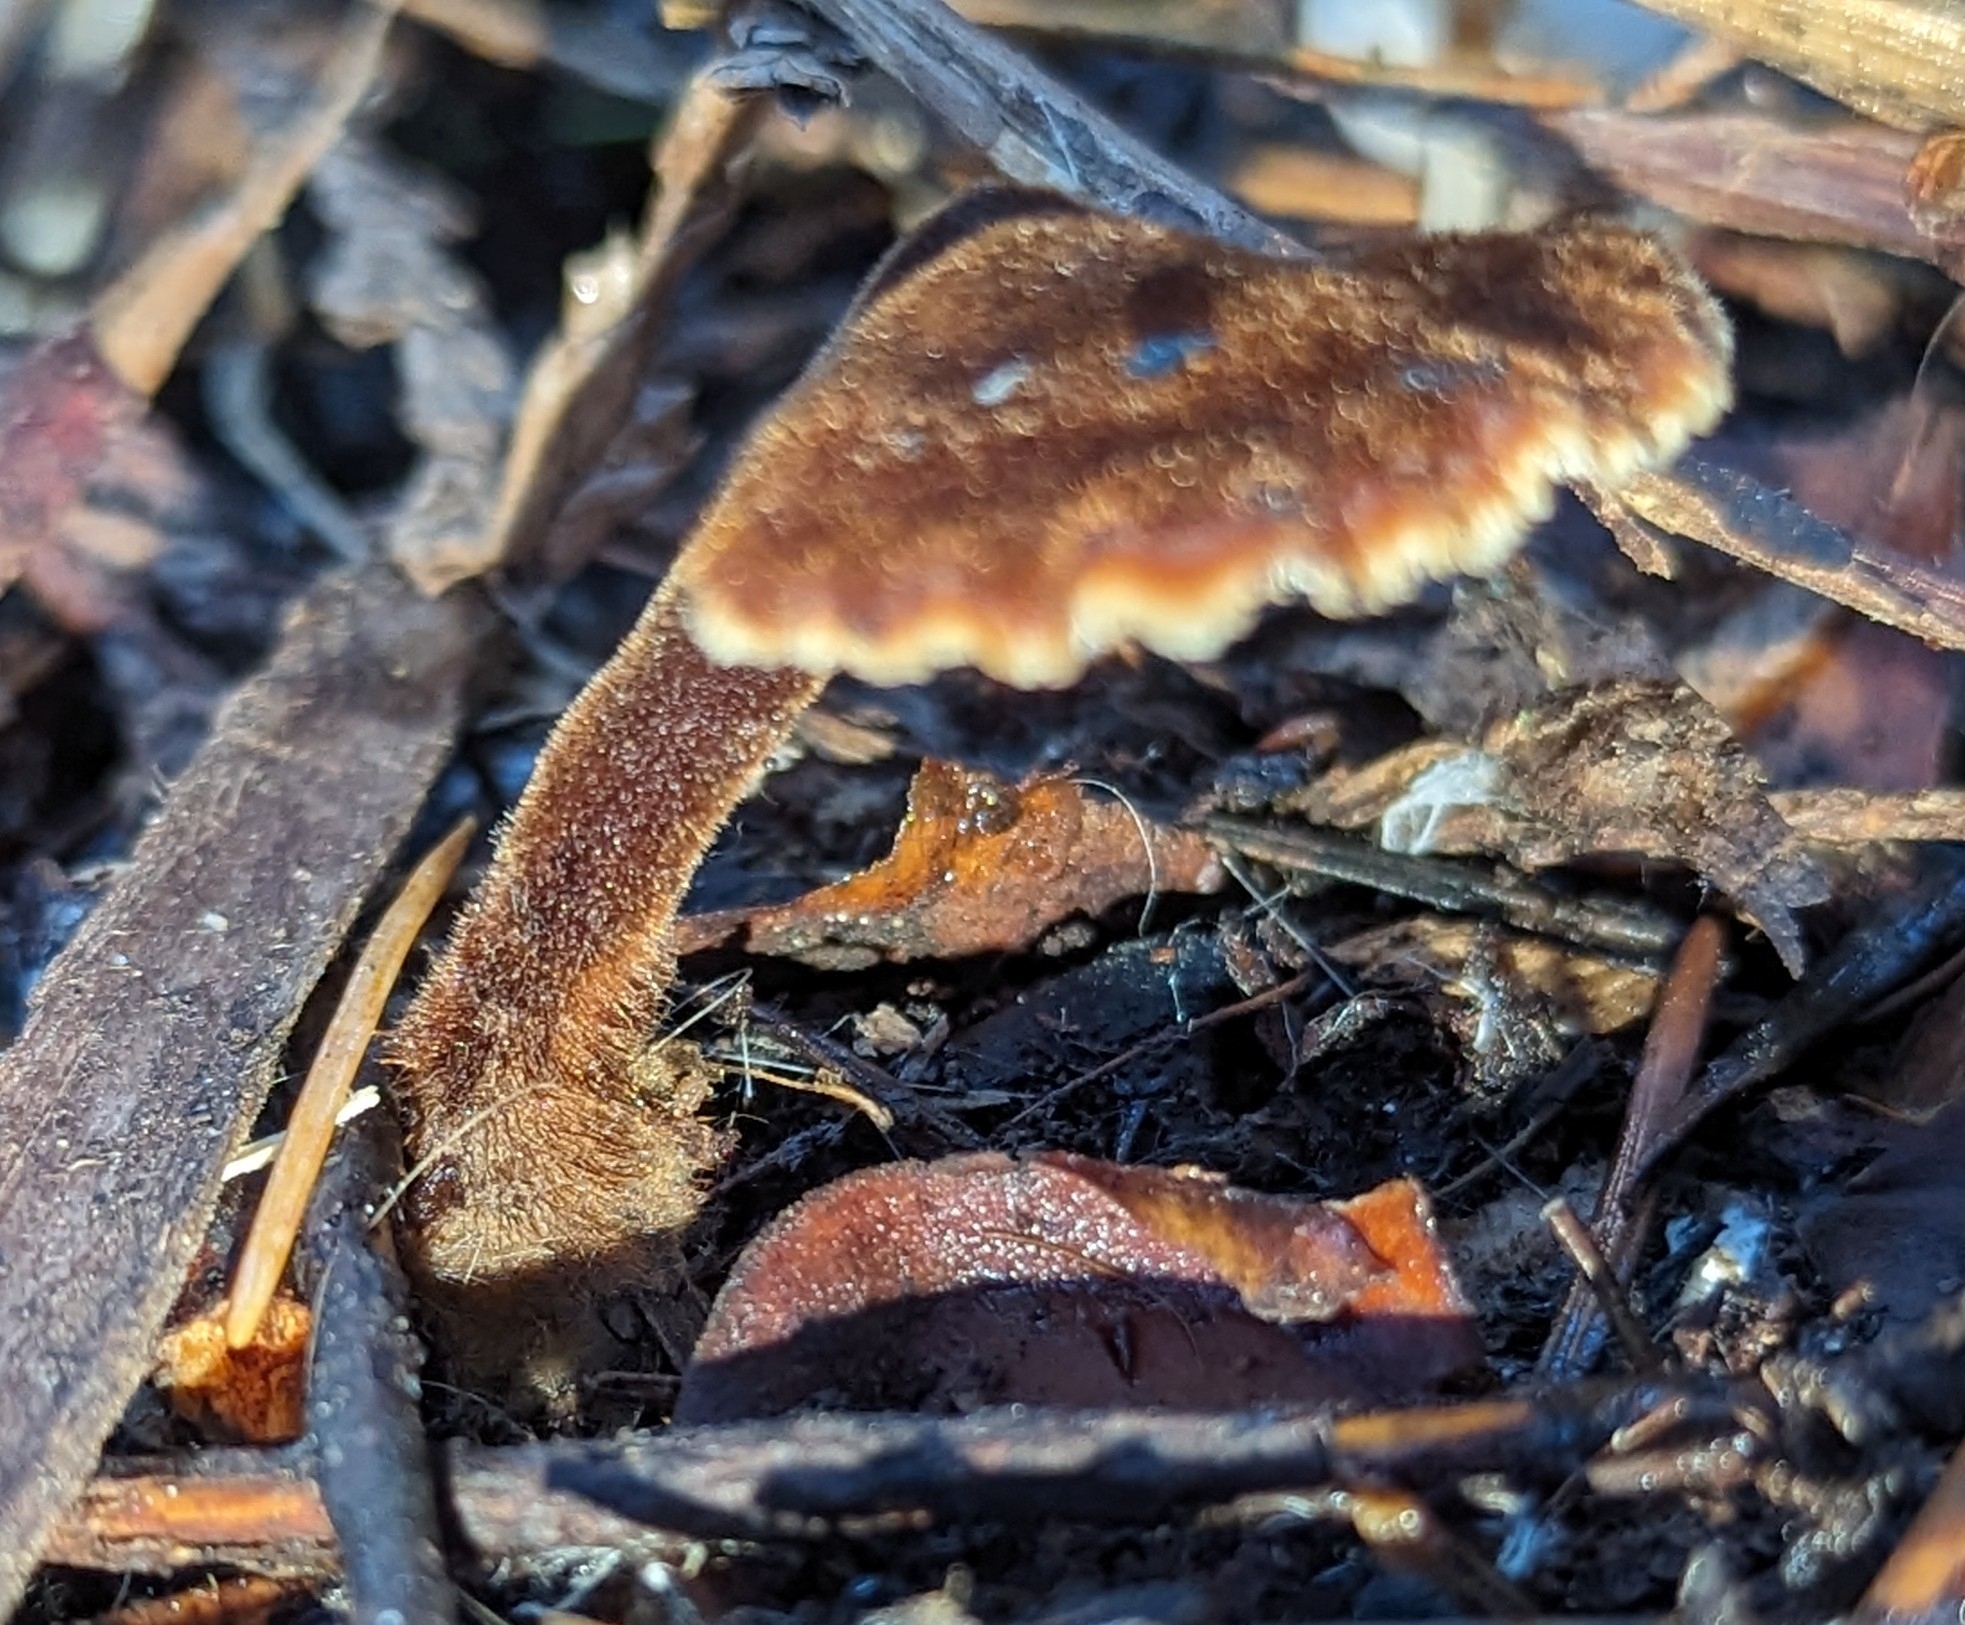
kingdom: Fungi
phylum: Basidiomycota
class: Agaricomycetes
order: Russulales
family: Auriscalpiaceae
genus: Auriscalpium
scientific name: Auriscalpium vulgare
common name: Earpick fungus
